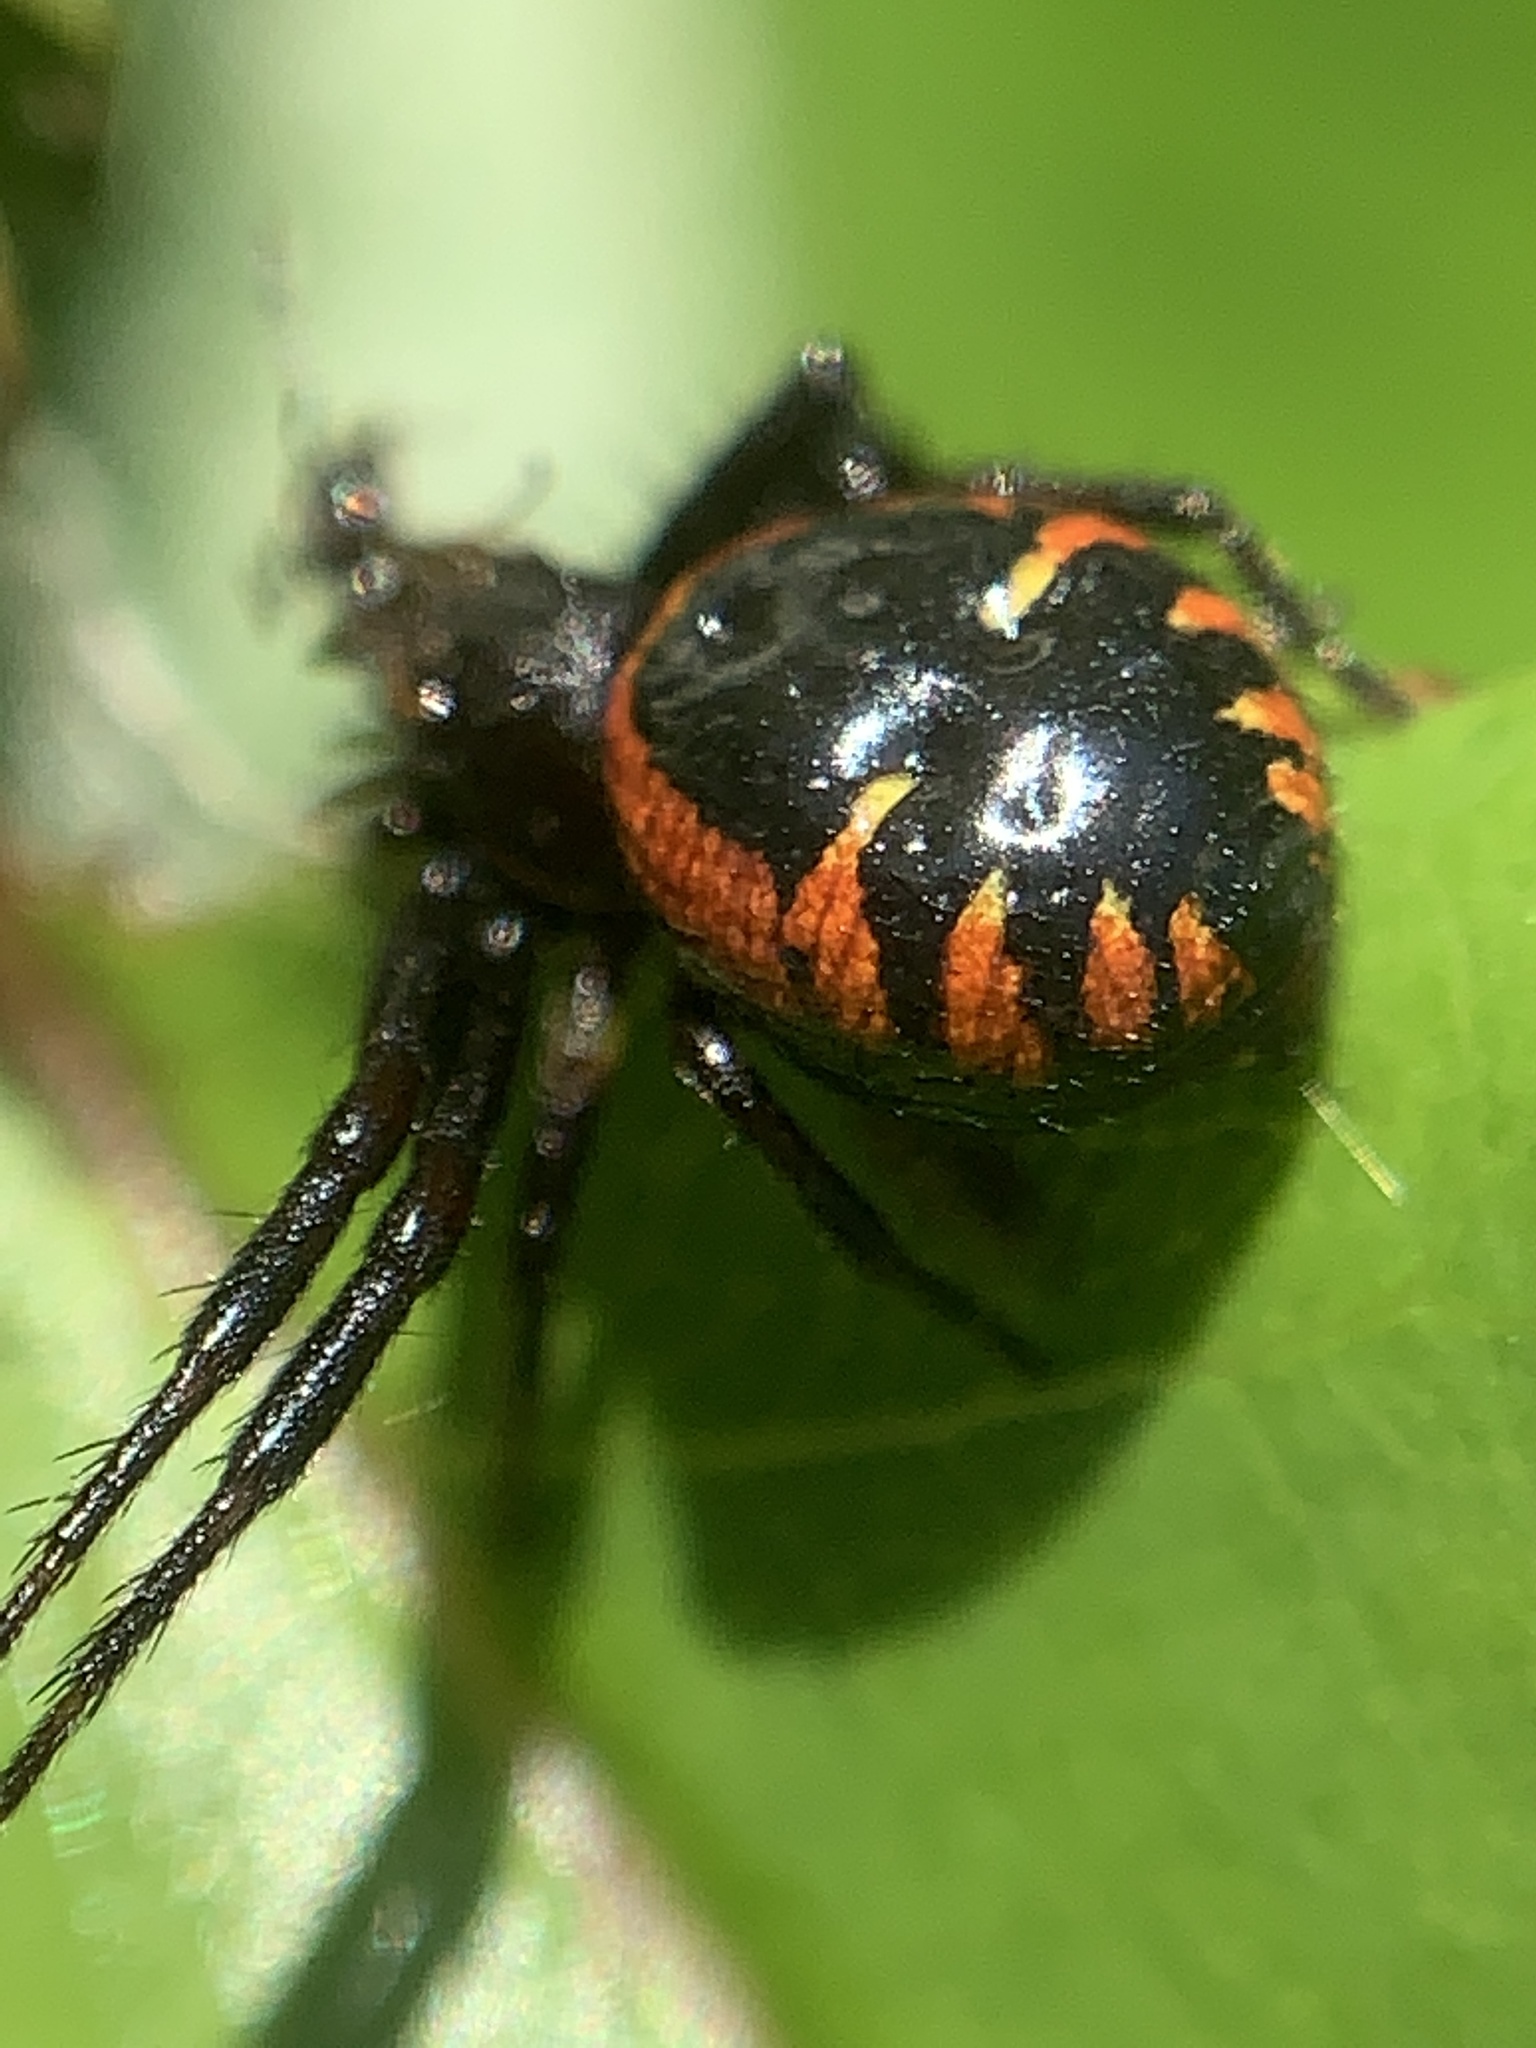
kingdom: Animalia
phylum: Arthropoda
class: Arachnida
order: Araneae
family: Thomisidae
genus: Synema
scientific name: Synema globosum
